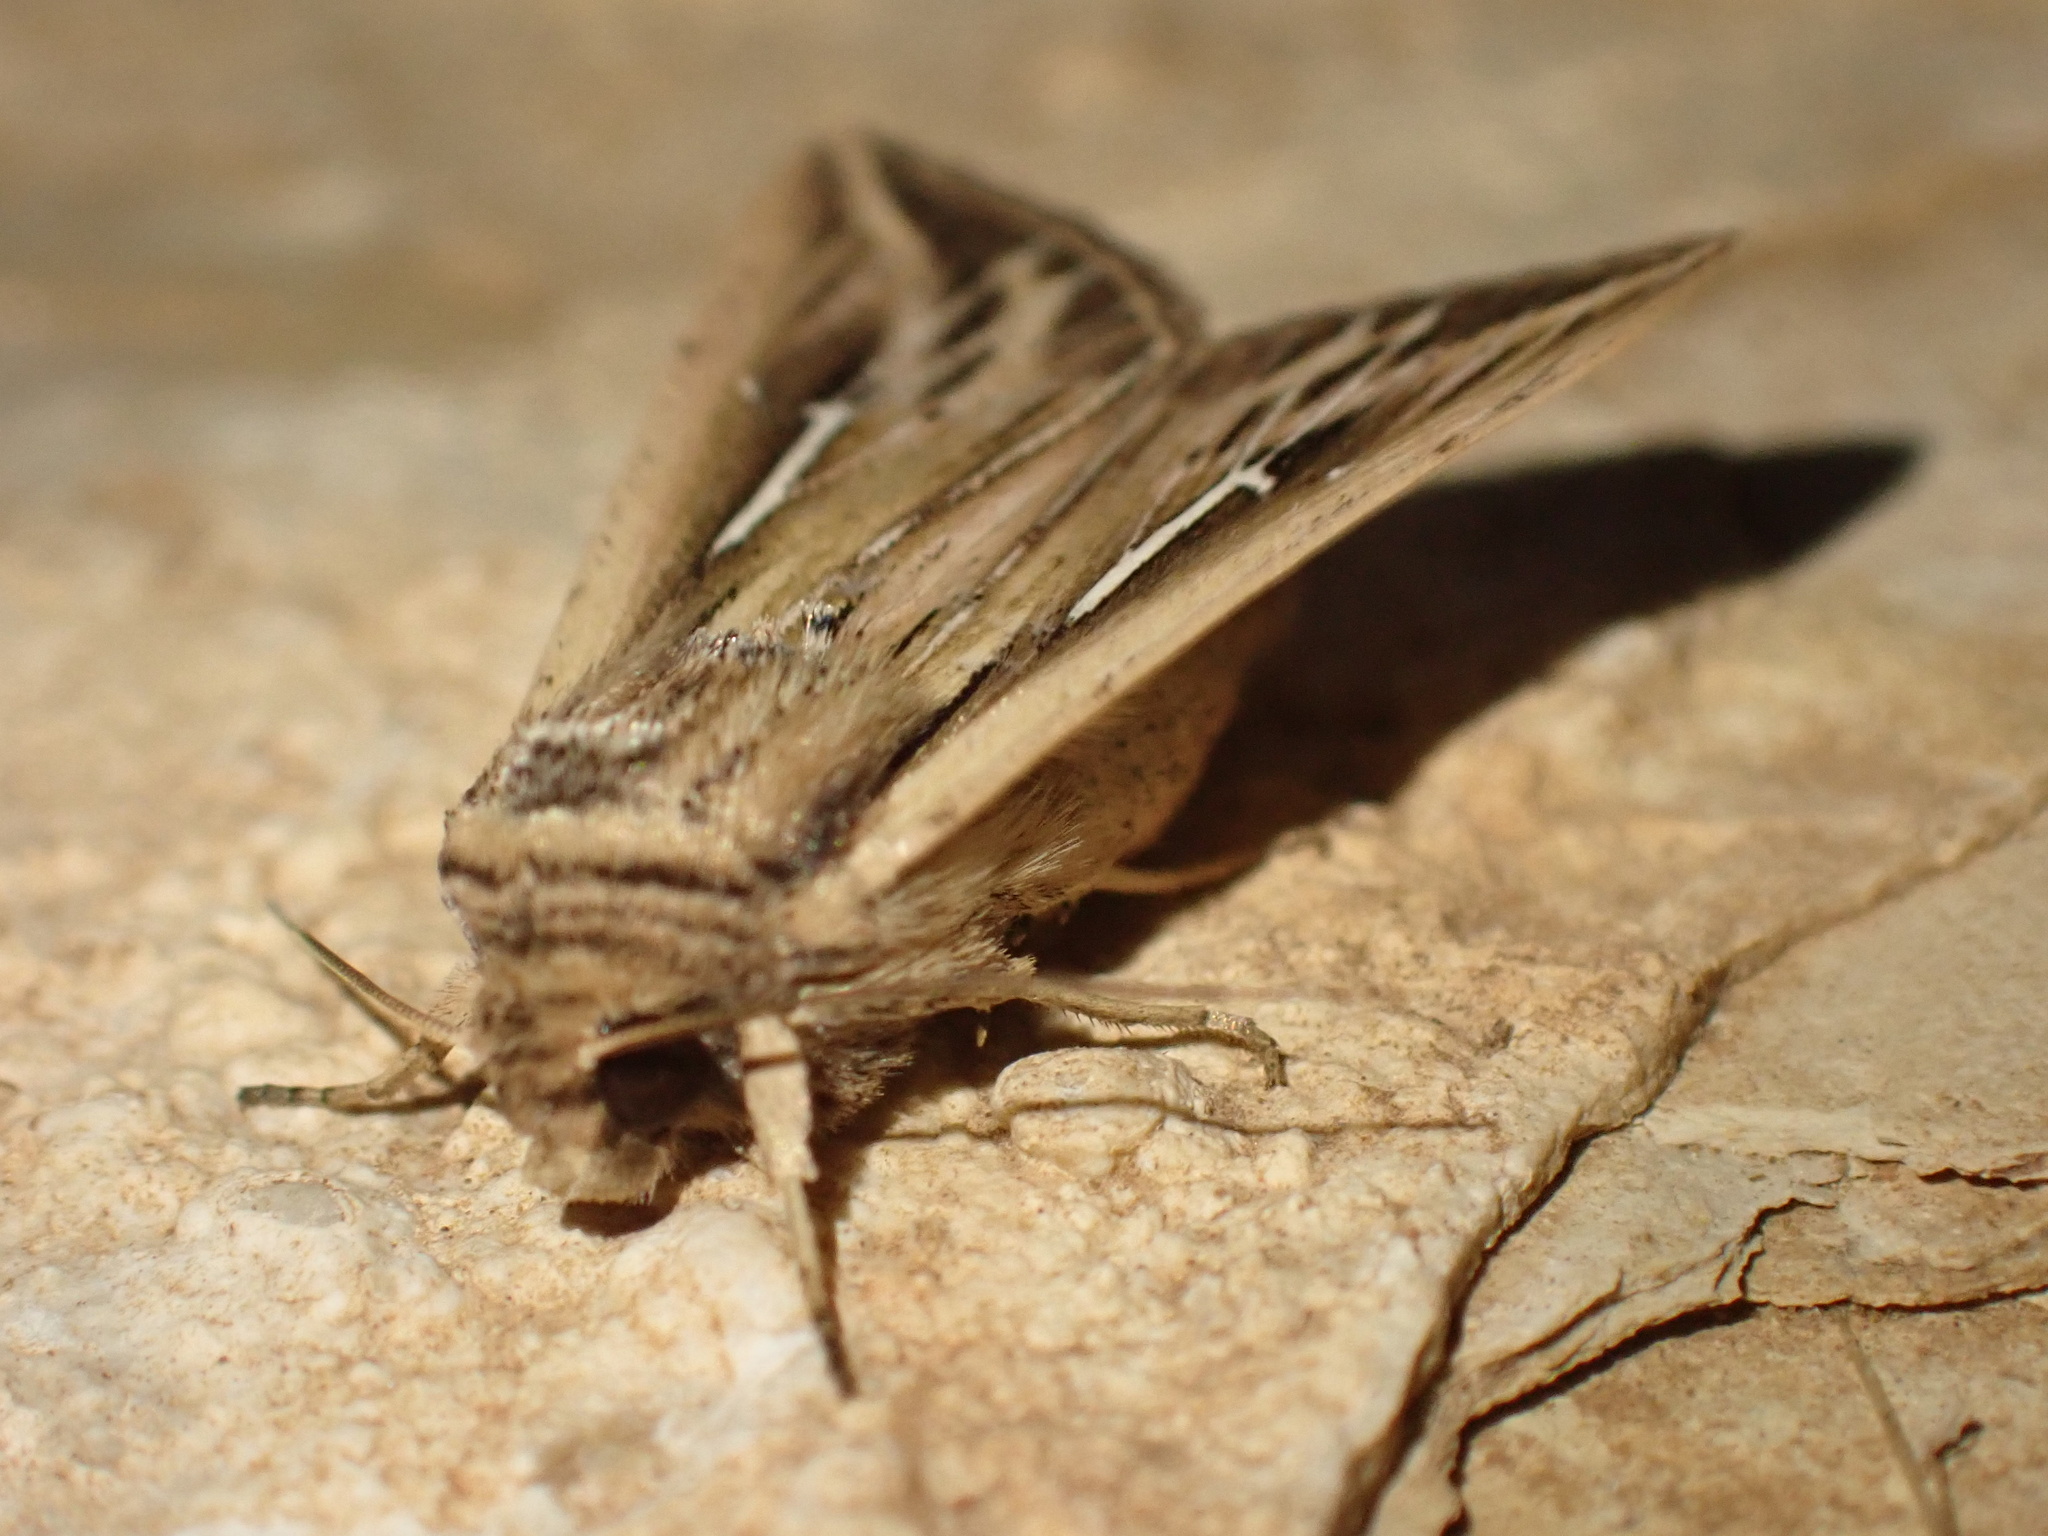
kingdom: Animalia
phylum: Arthropoda
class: Insecta
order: Lepidoptera
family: Noctuidae
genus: Mythimna
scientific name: Mythimna l-album
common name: L-album wainscot
